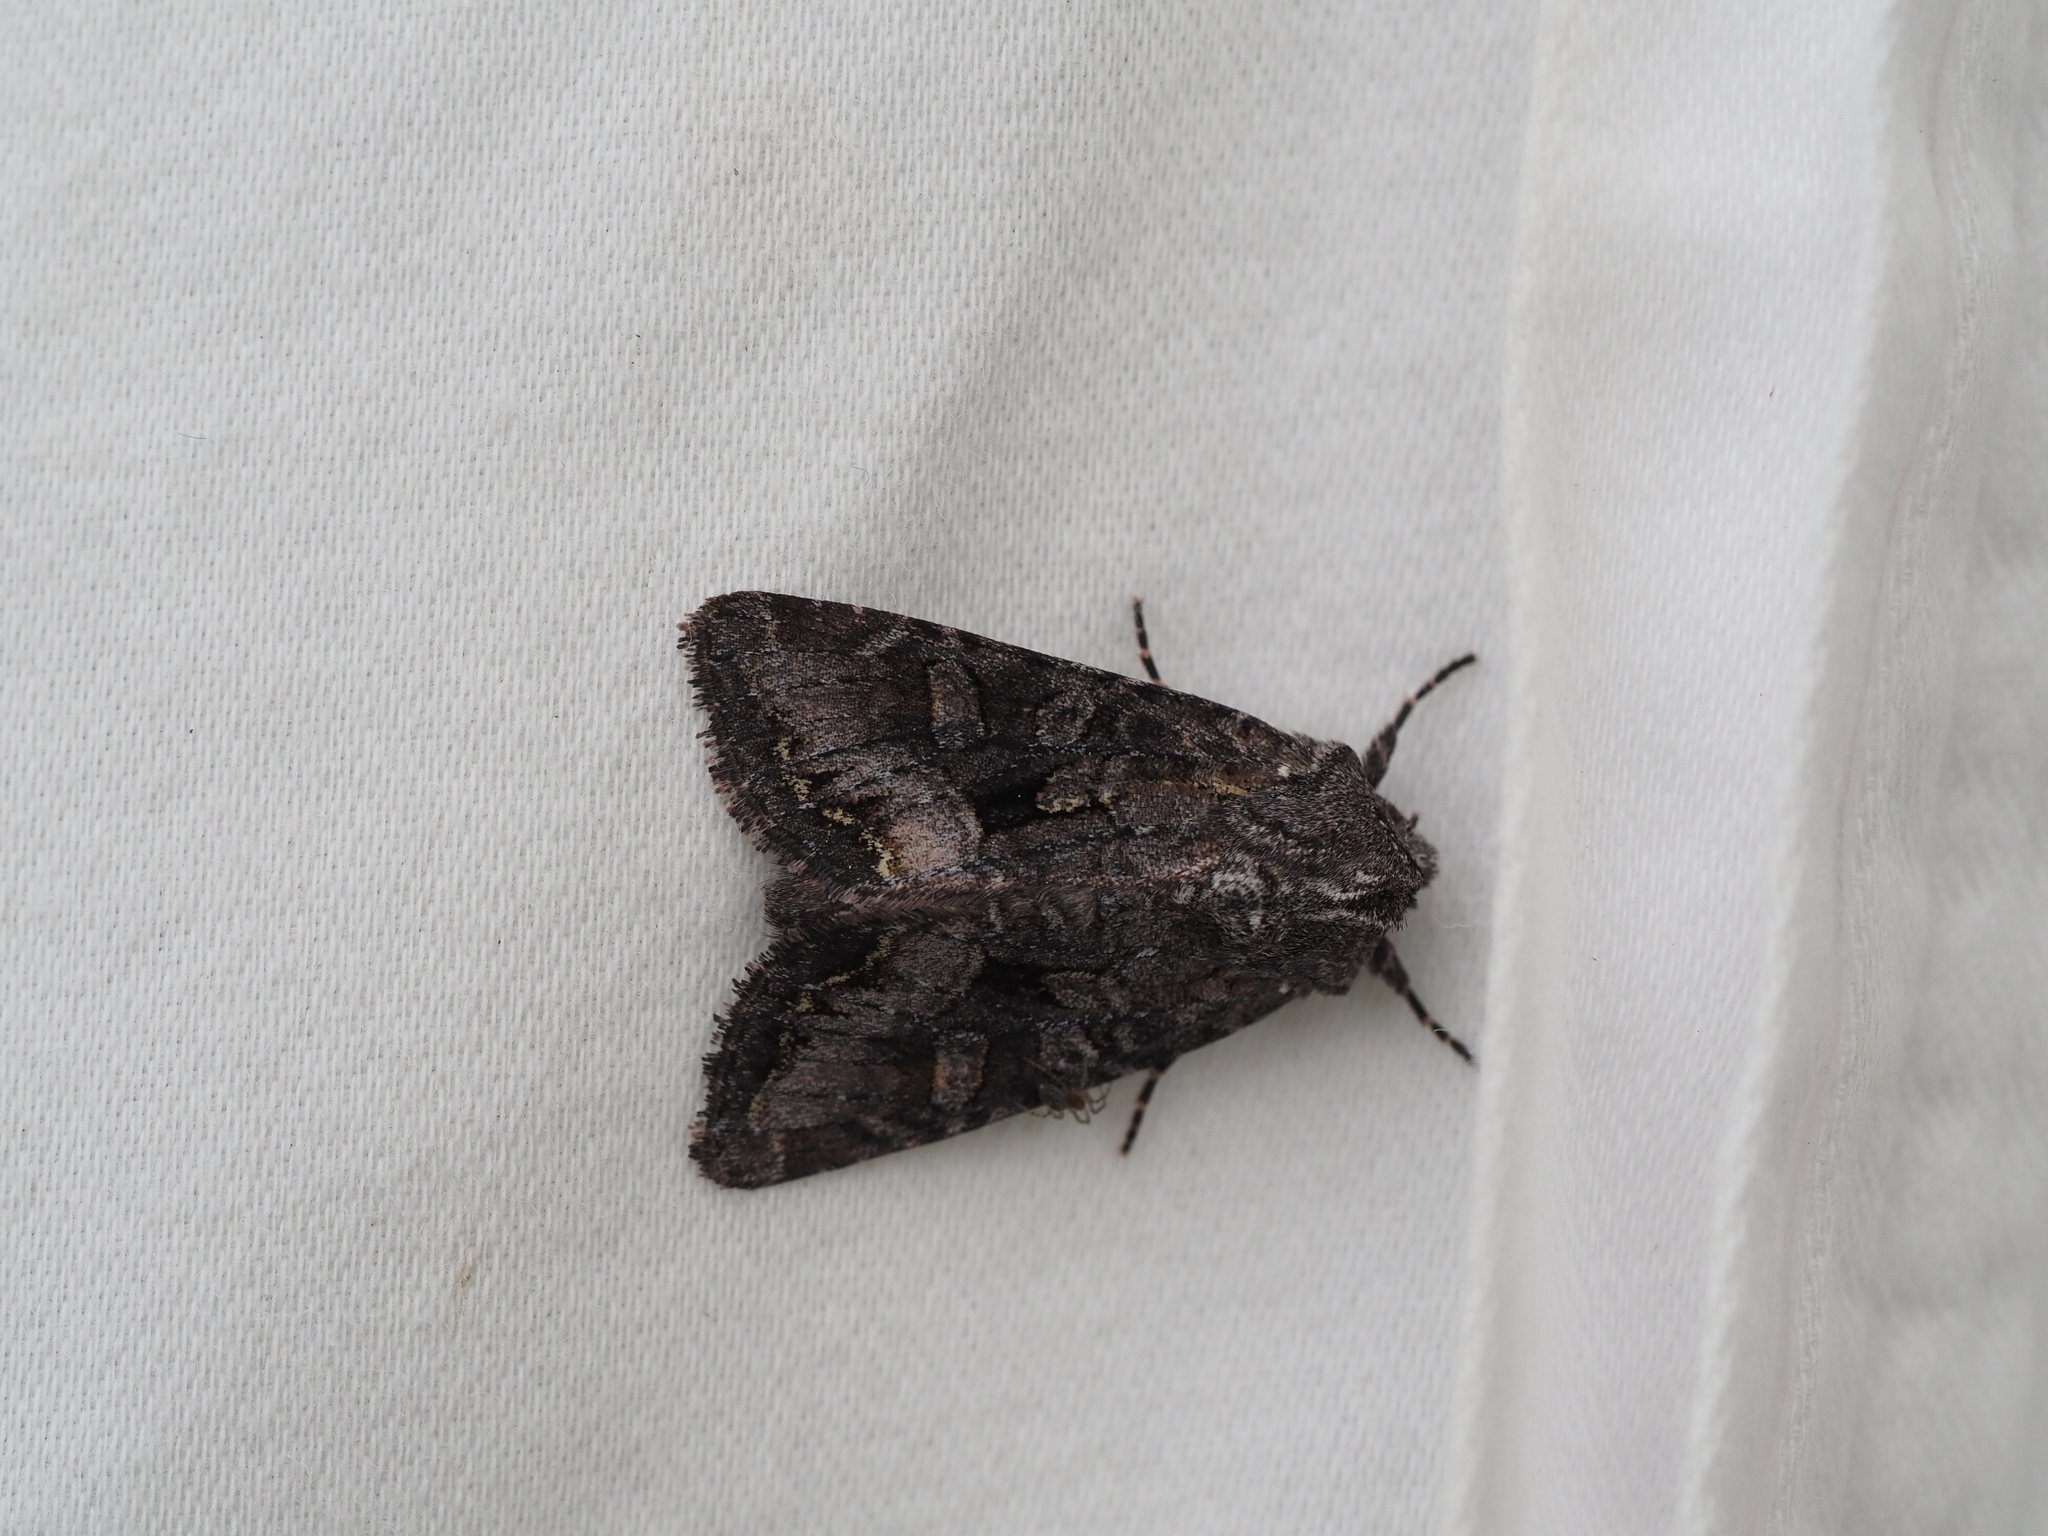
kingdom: Animalia
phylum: Arthropoda
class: Insecta
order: Lepidoptera
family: Noctuidae
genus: Papestra
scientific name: Papestra quadrata
